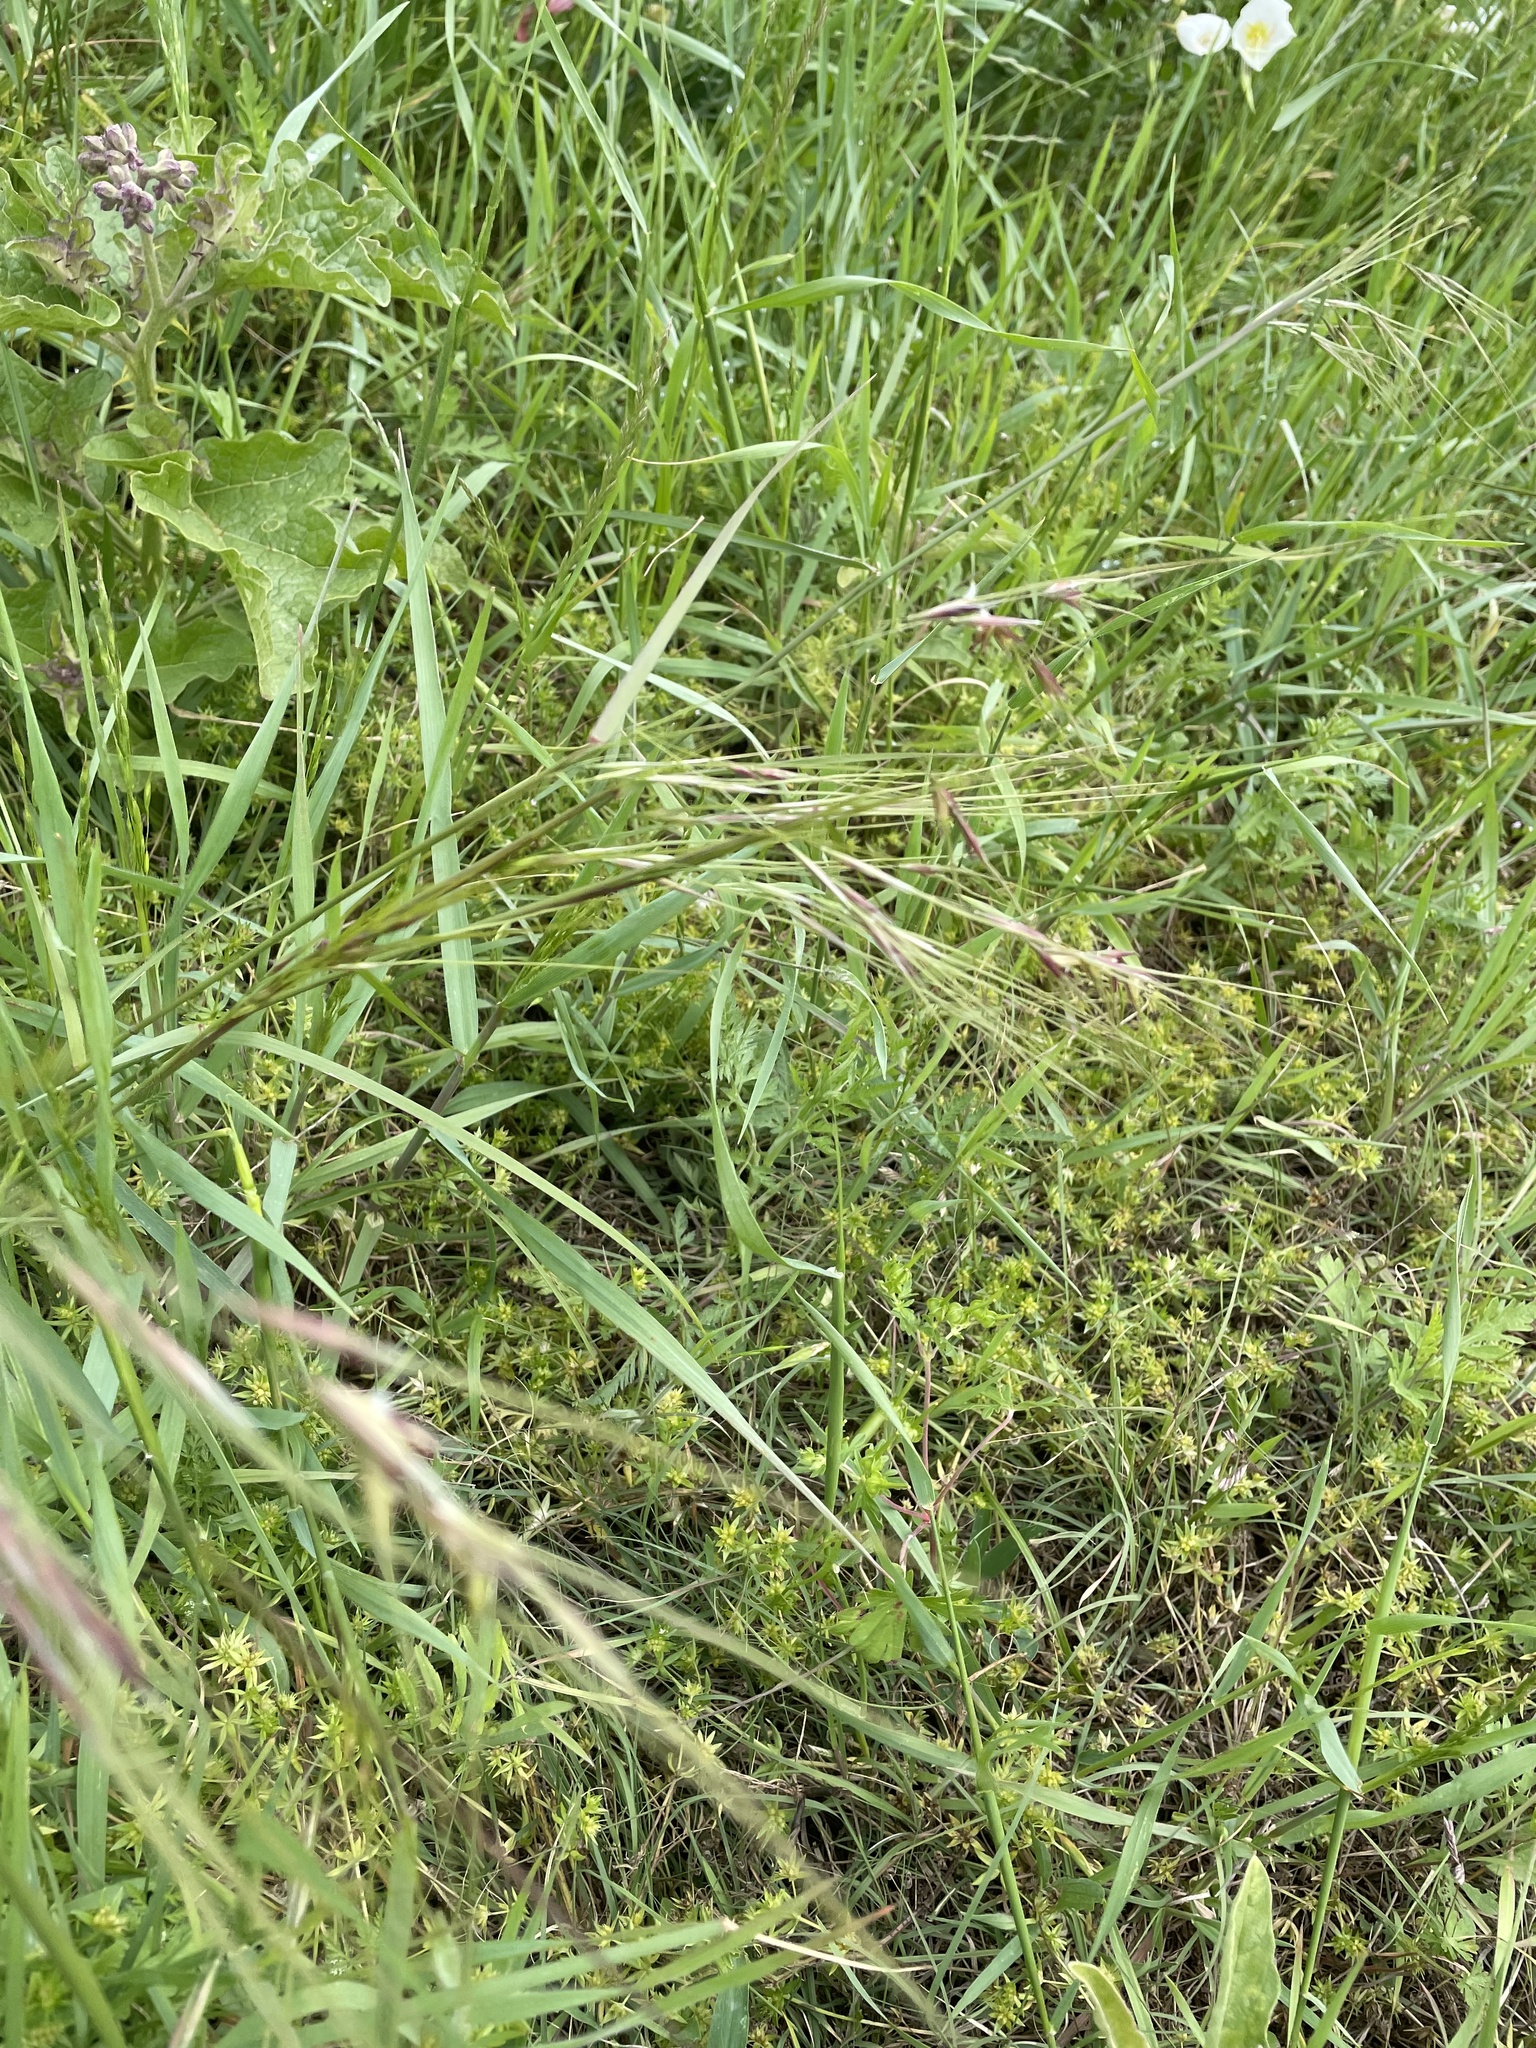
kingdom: Plantae
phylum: Tracheophyta
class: Liliopsida
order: Poales
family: Poaceae
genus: Nassella
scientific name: Nassella leucotricha
